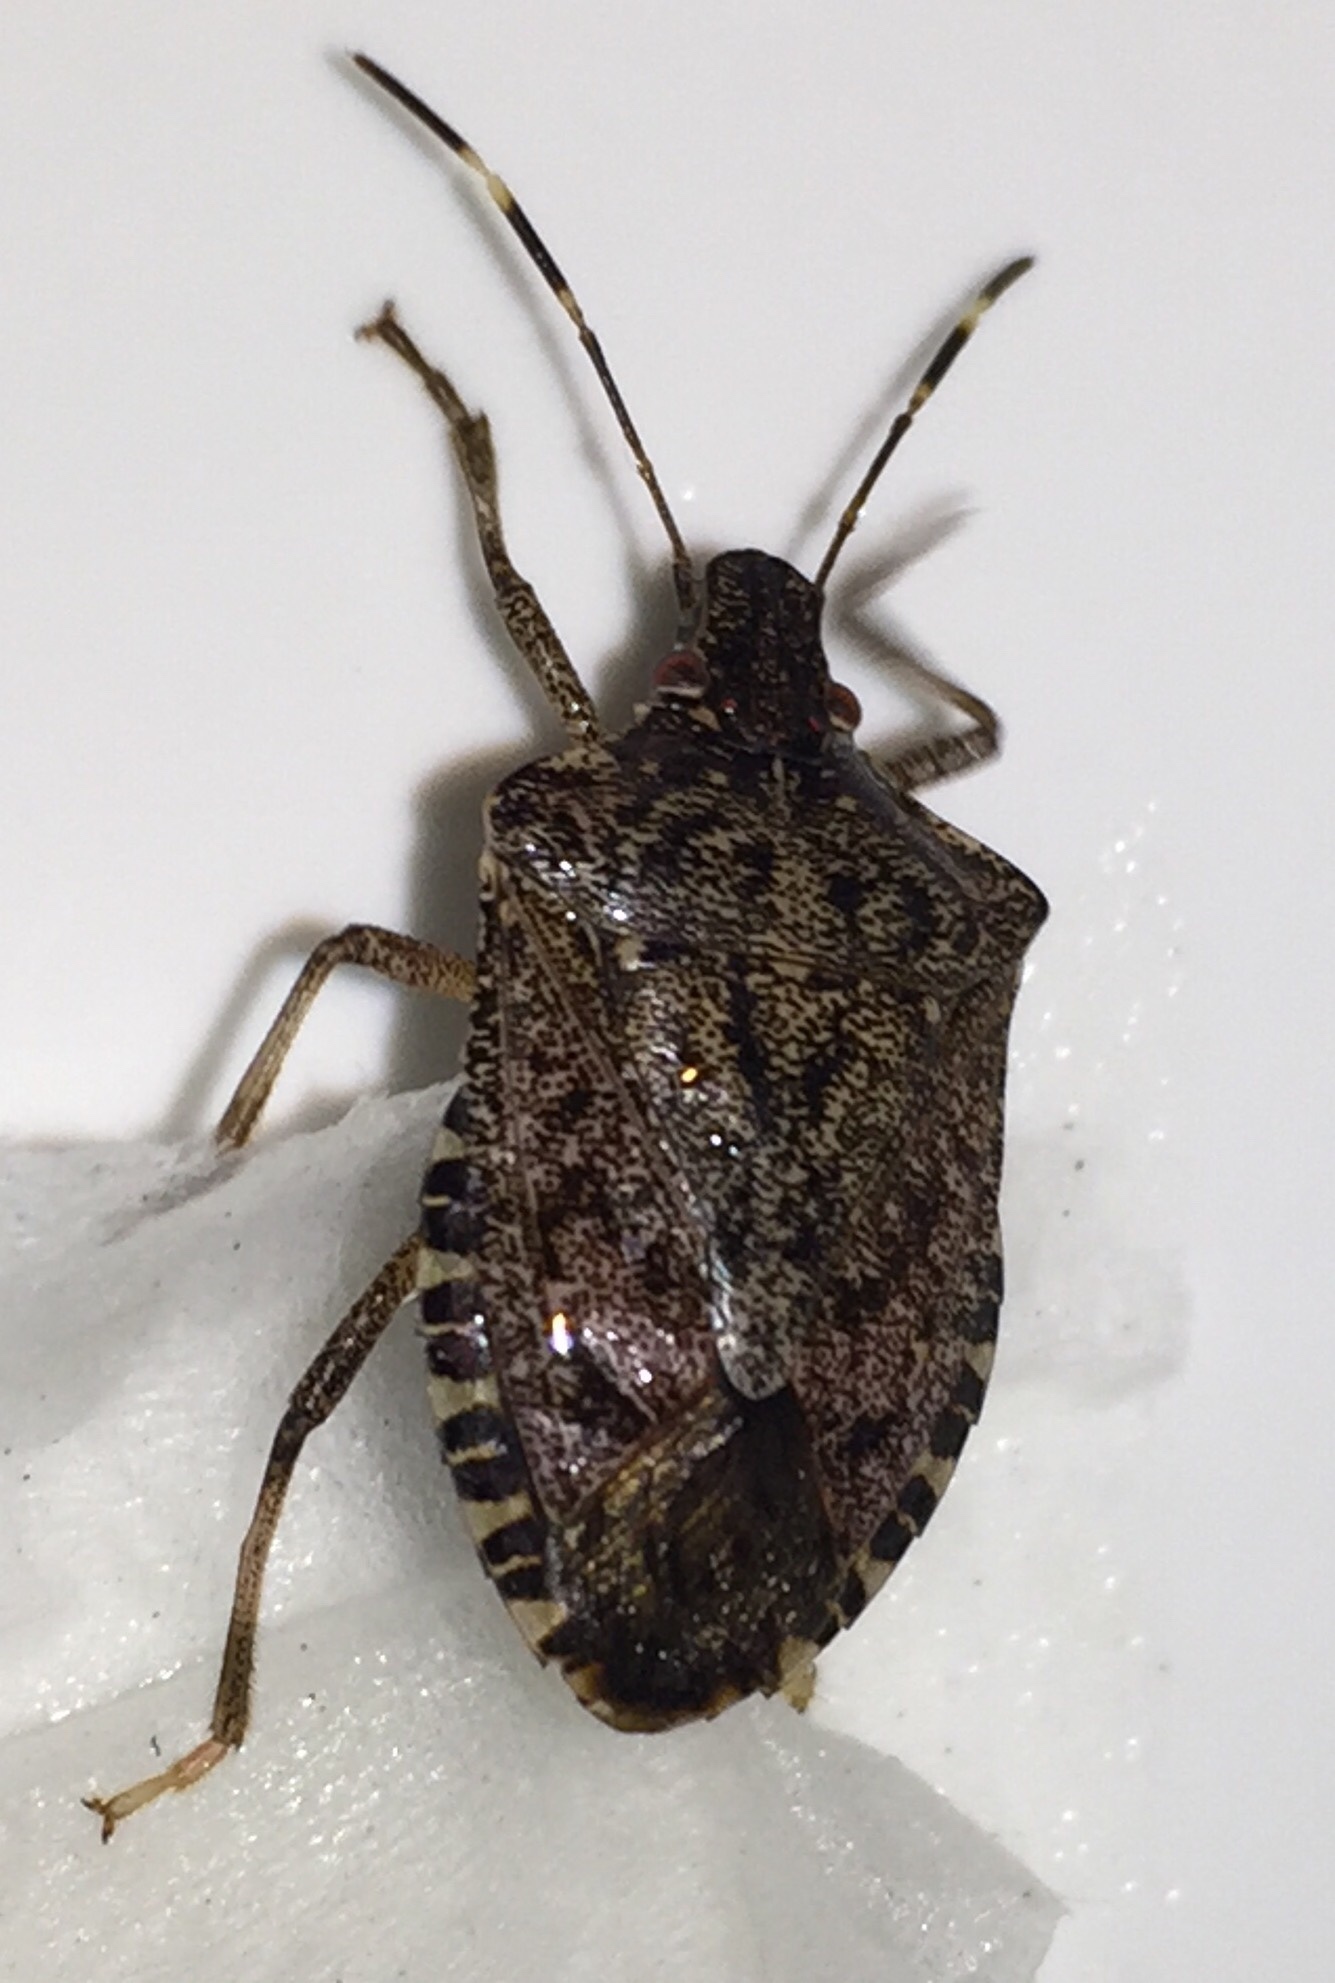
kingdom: Animalia
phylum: Arthropoda
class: Insecta
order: Hemiptera
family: Pentatomidae
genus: Halyomorpha
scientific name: Halyomorpha halys
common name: Brown marmorated stink bug
